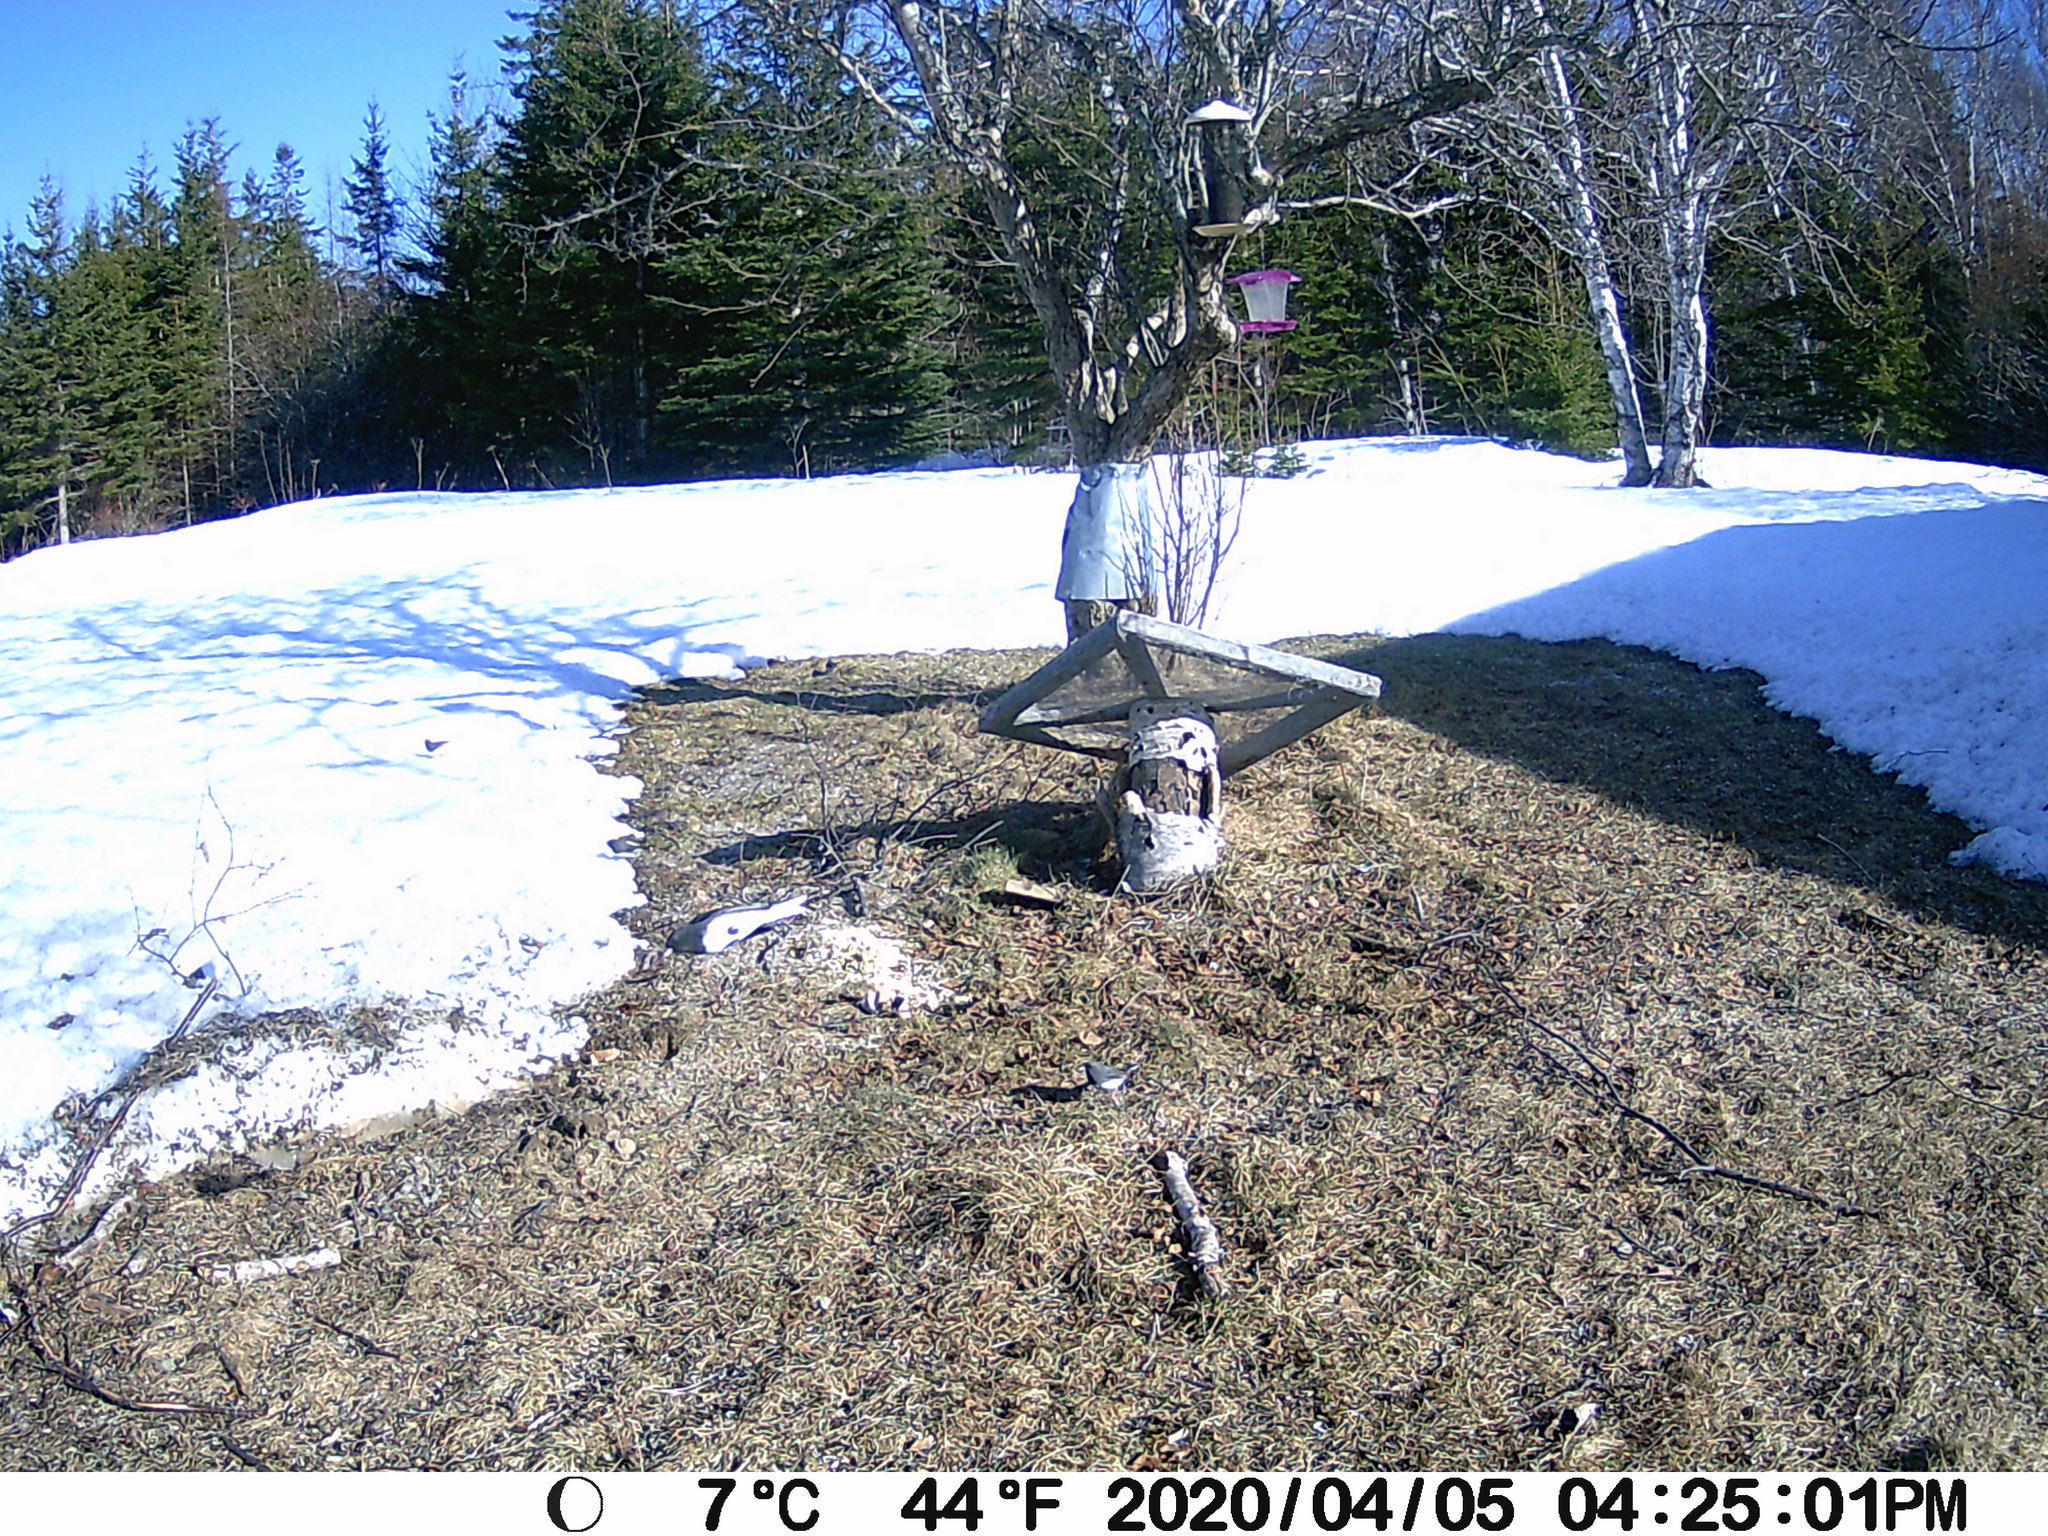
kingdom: Animalia
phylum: Chordata
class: Aves
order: Passeriformes
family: Passerellidae
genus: Junco
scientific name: Junco hyemalis
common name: Dark-eyed junco
